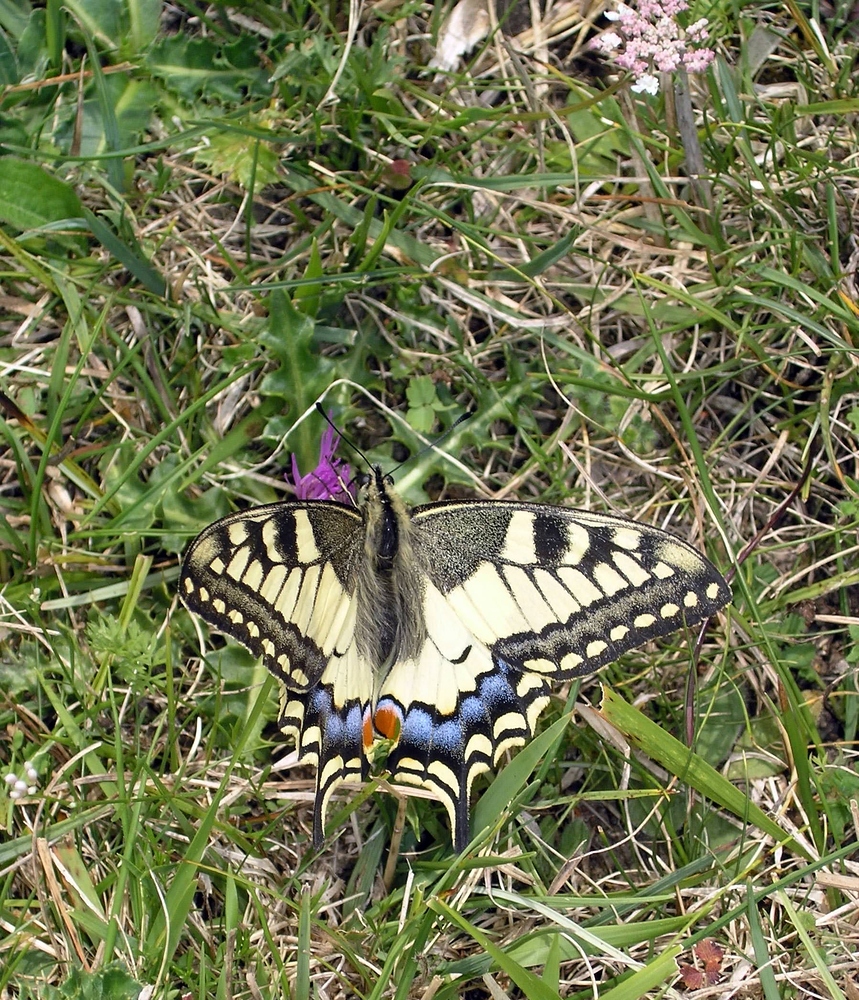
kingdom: Animalia
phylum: Arthropoda
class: Insecta
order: Lepidoptera
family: Papilionidae
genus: Papilio
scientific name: Papilio machaon
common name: Swallowtail
